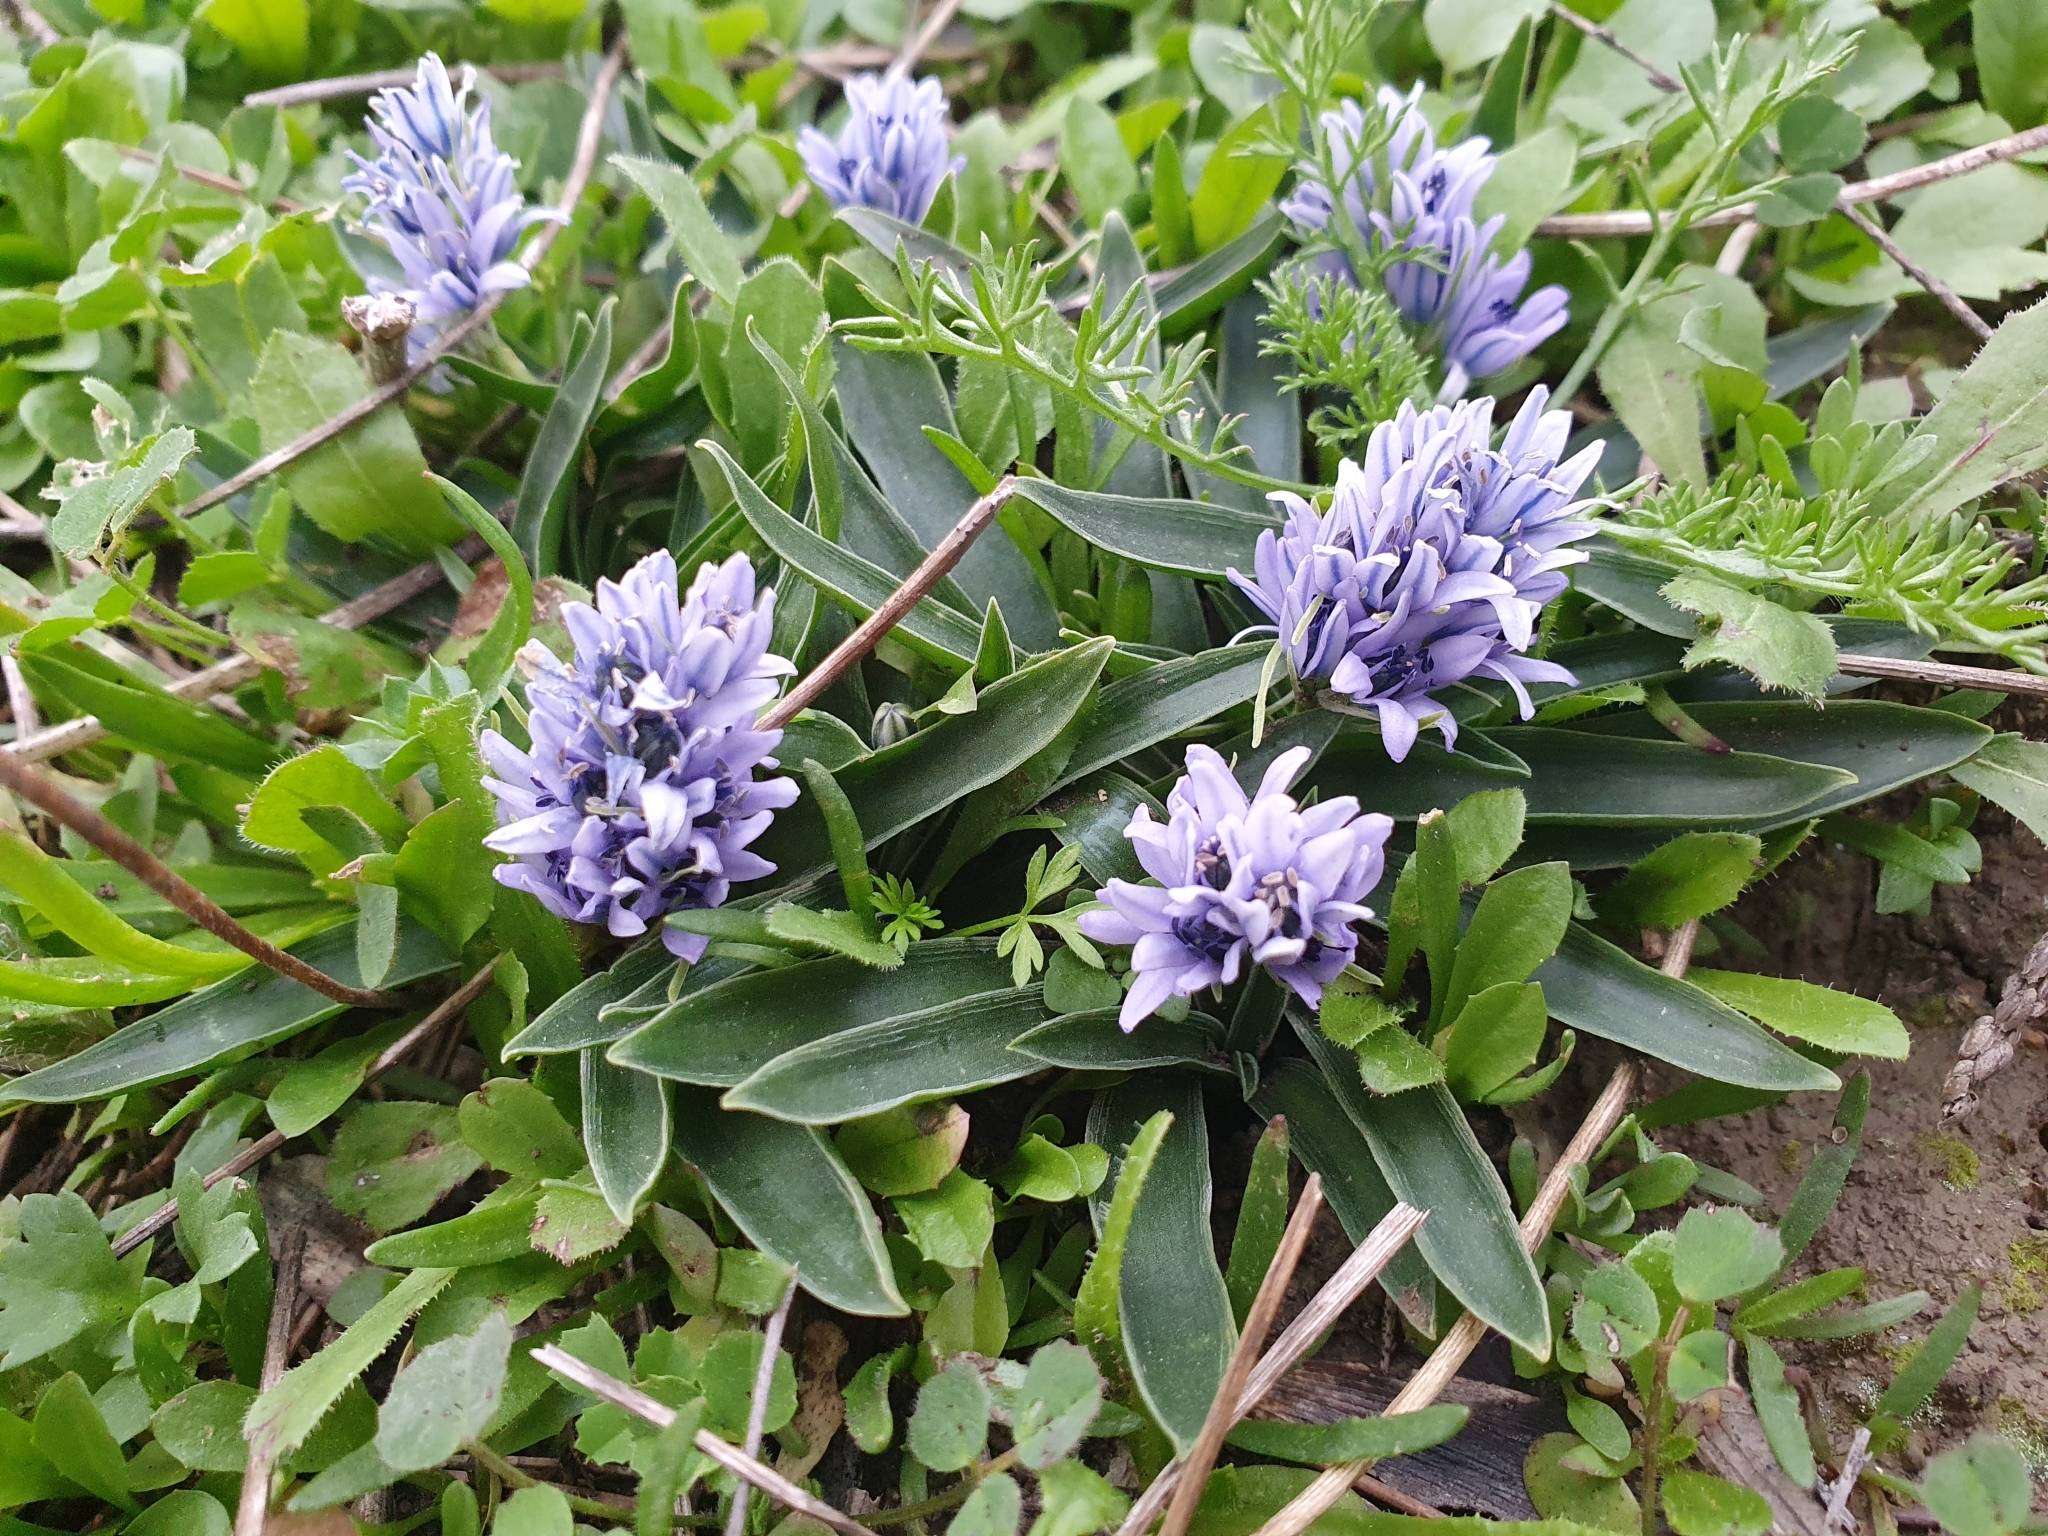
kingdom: Plantae
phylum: Tracheophyta
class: Liliopsida
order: Asparagales
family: Asparagaceae
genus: Hyacinthoides
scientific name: Hyacinthoides lingulata
